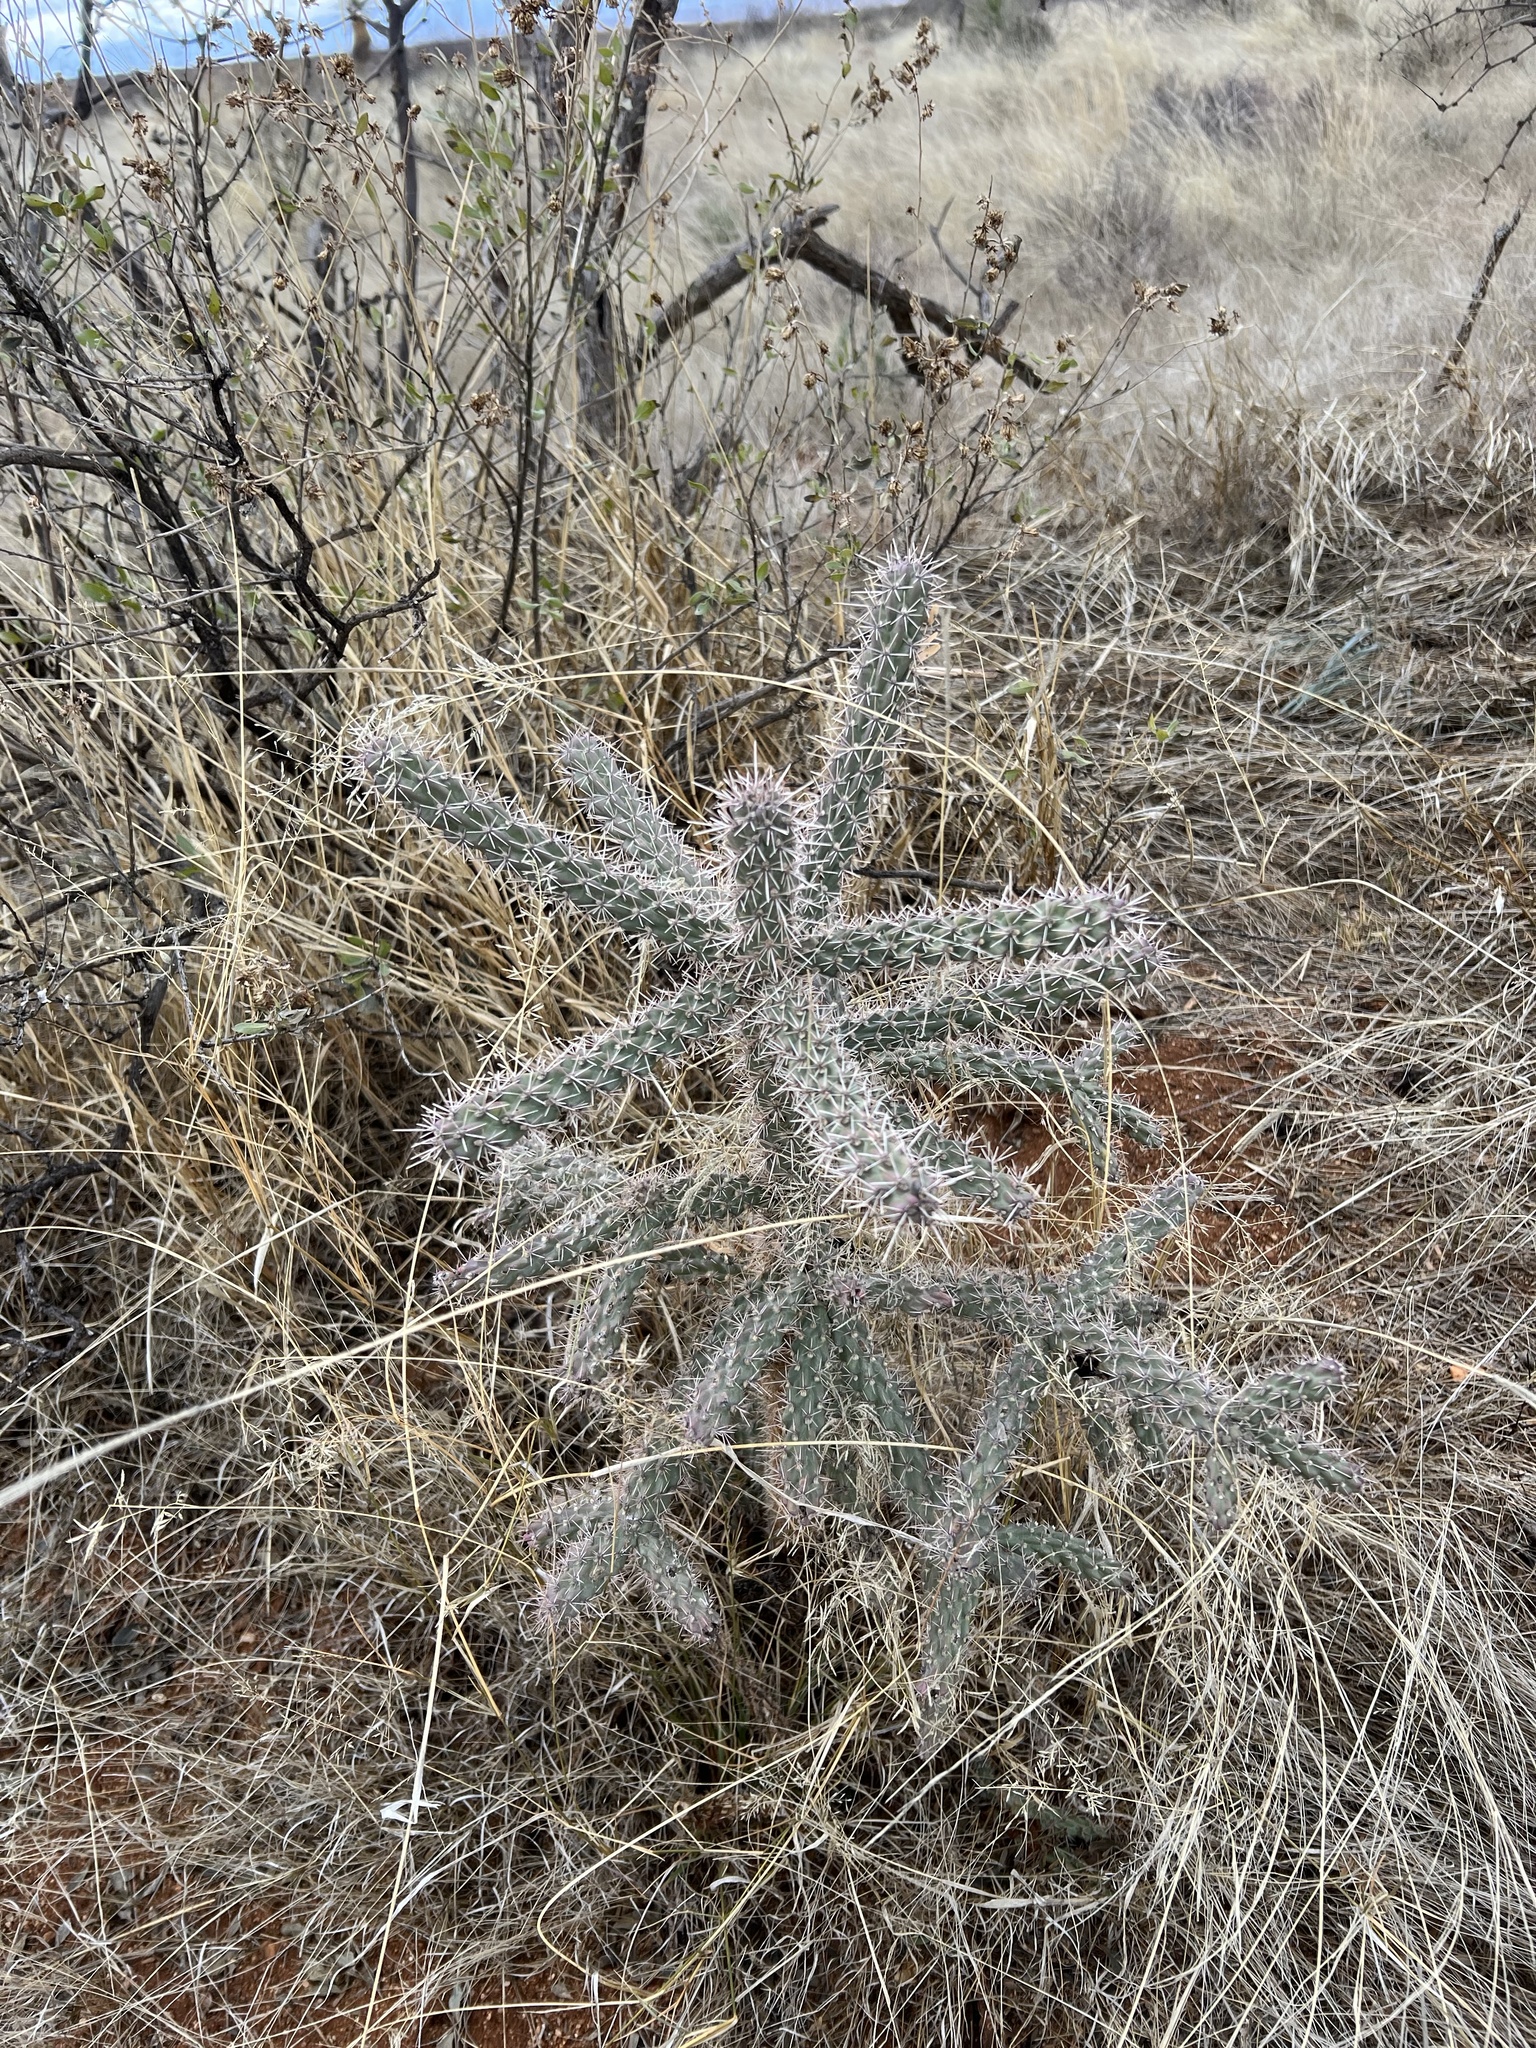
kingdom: Plantae
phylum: Tracheophyta
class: Magnoliopsida
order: Caryophyllales
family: Cactaceae
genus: Cylindropuntia
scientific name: Cylindropuntia imbricata
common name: Candelabrum cactus
